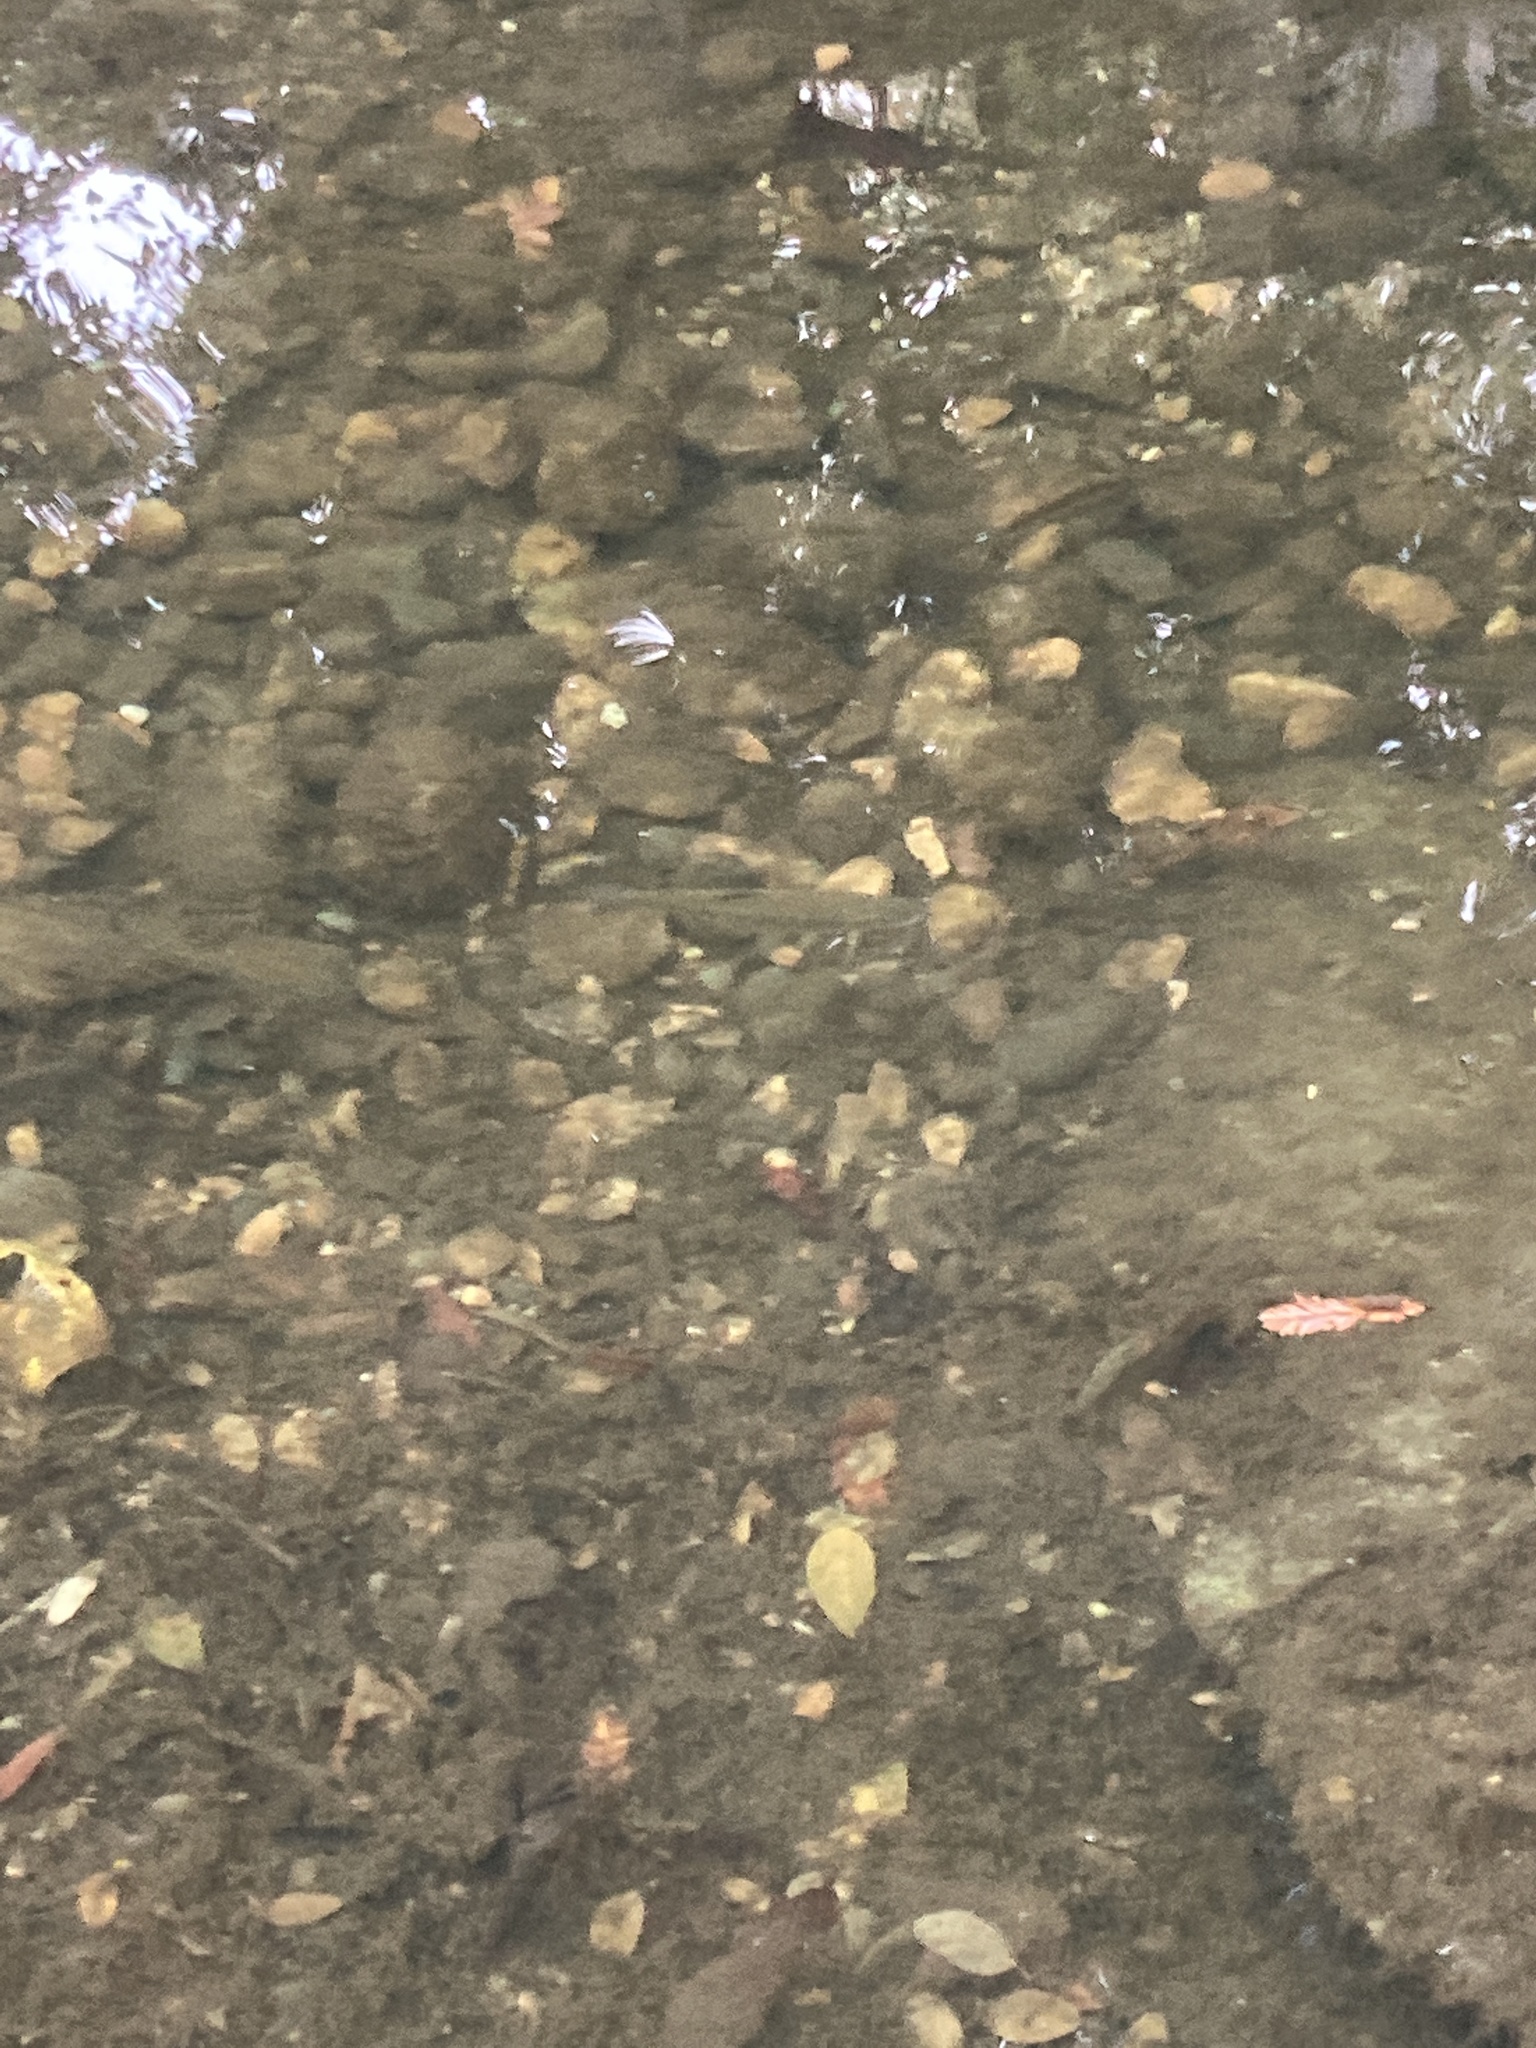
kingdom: Animalia
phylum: Chordata
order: Salmoniformes
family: Salmonidae
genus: Oncorhynchus
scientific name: Oncorhynchus mykiss
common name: Rainbow trout
